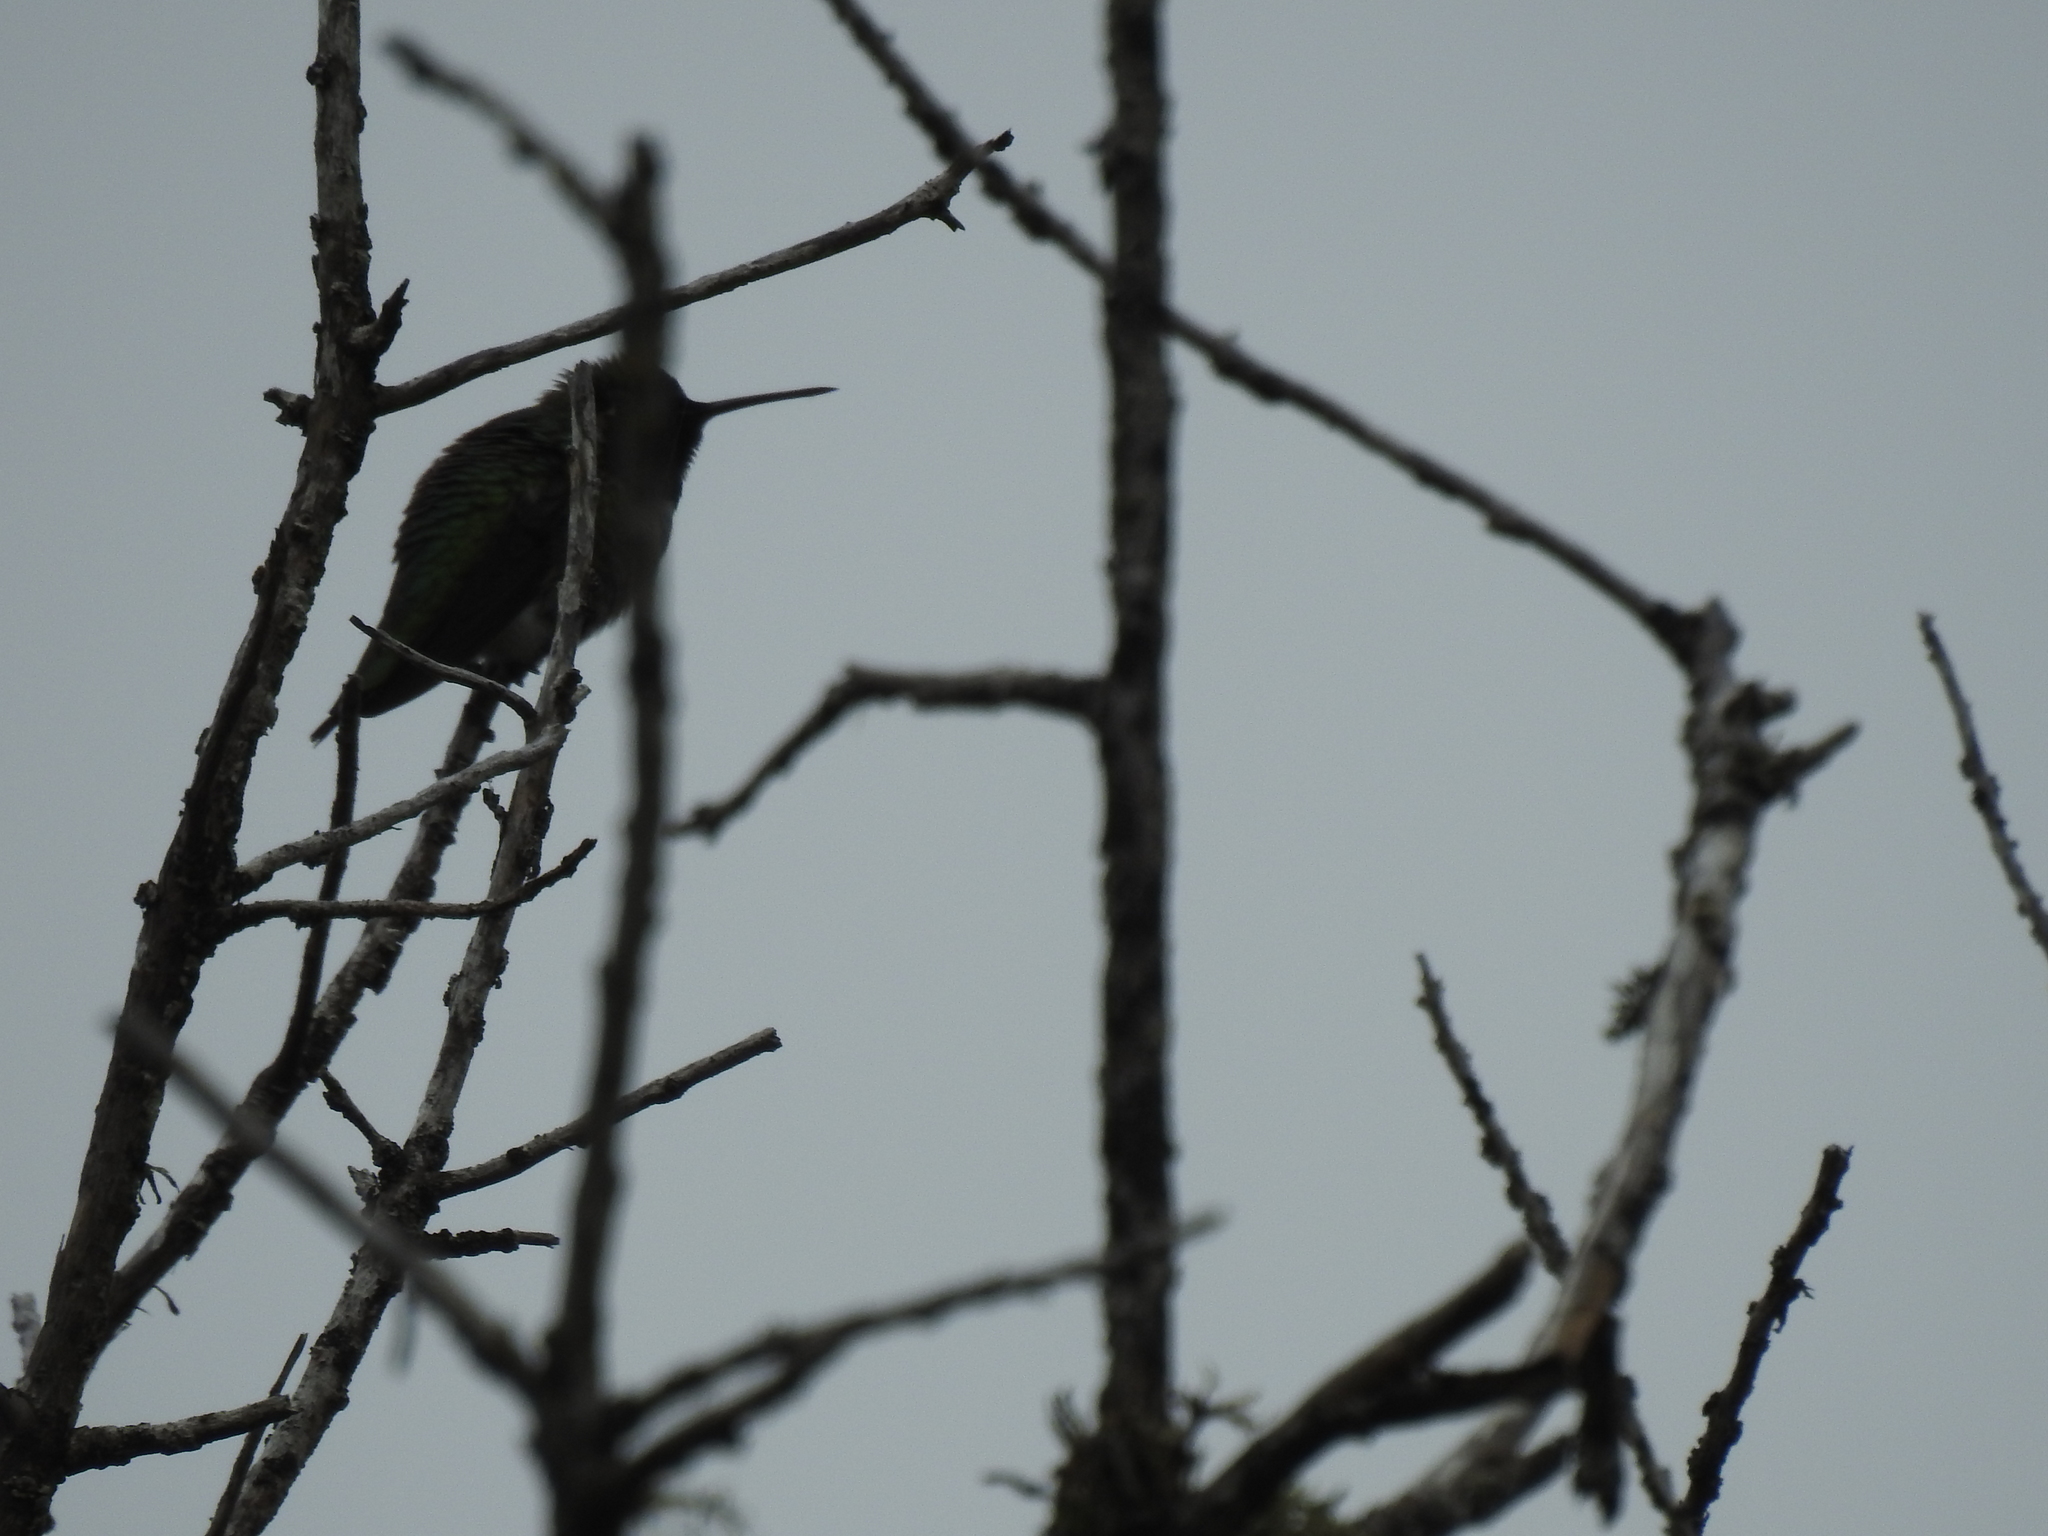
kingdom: Animalia
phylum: Chordata
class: Aves
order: Apodiformes
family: Trochilidae
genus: Calypte
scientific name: Calypte anna
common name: Anna's hummingbird
